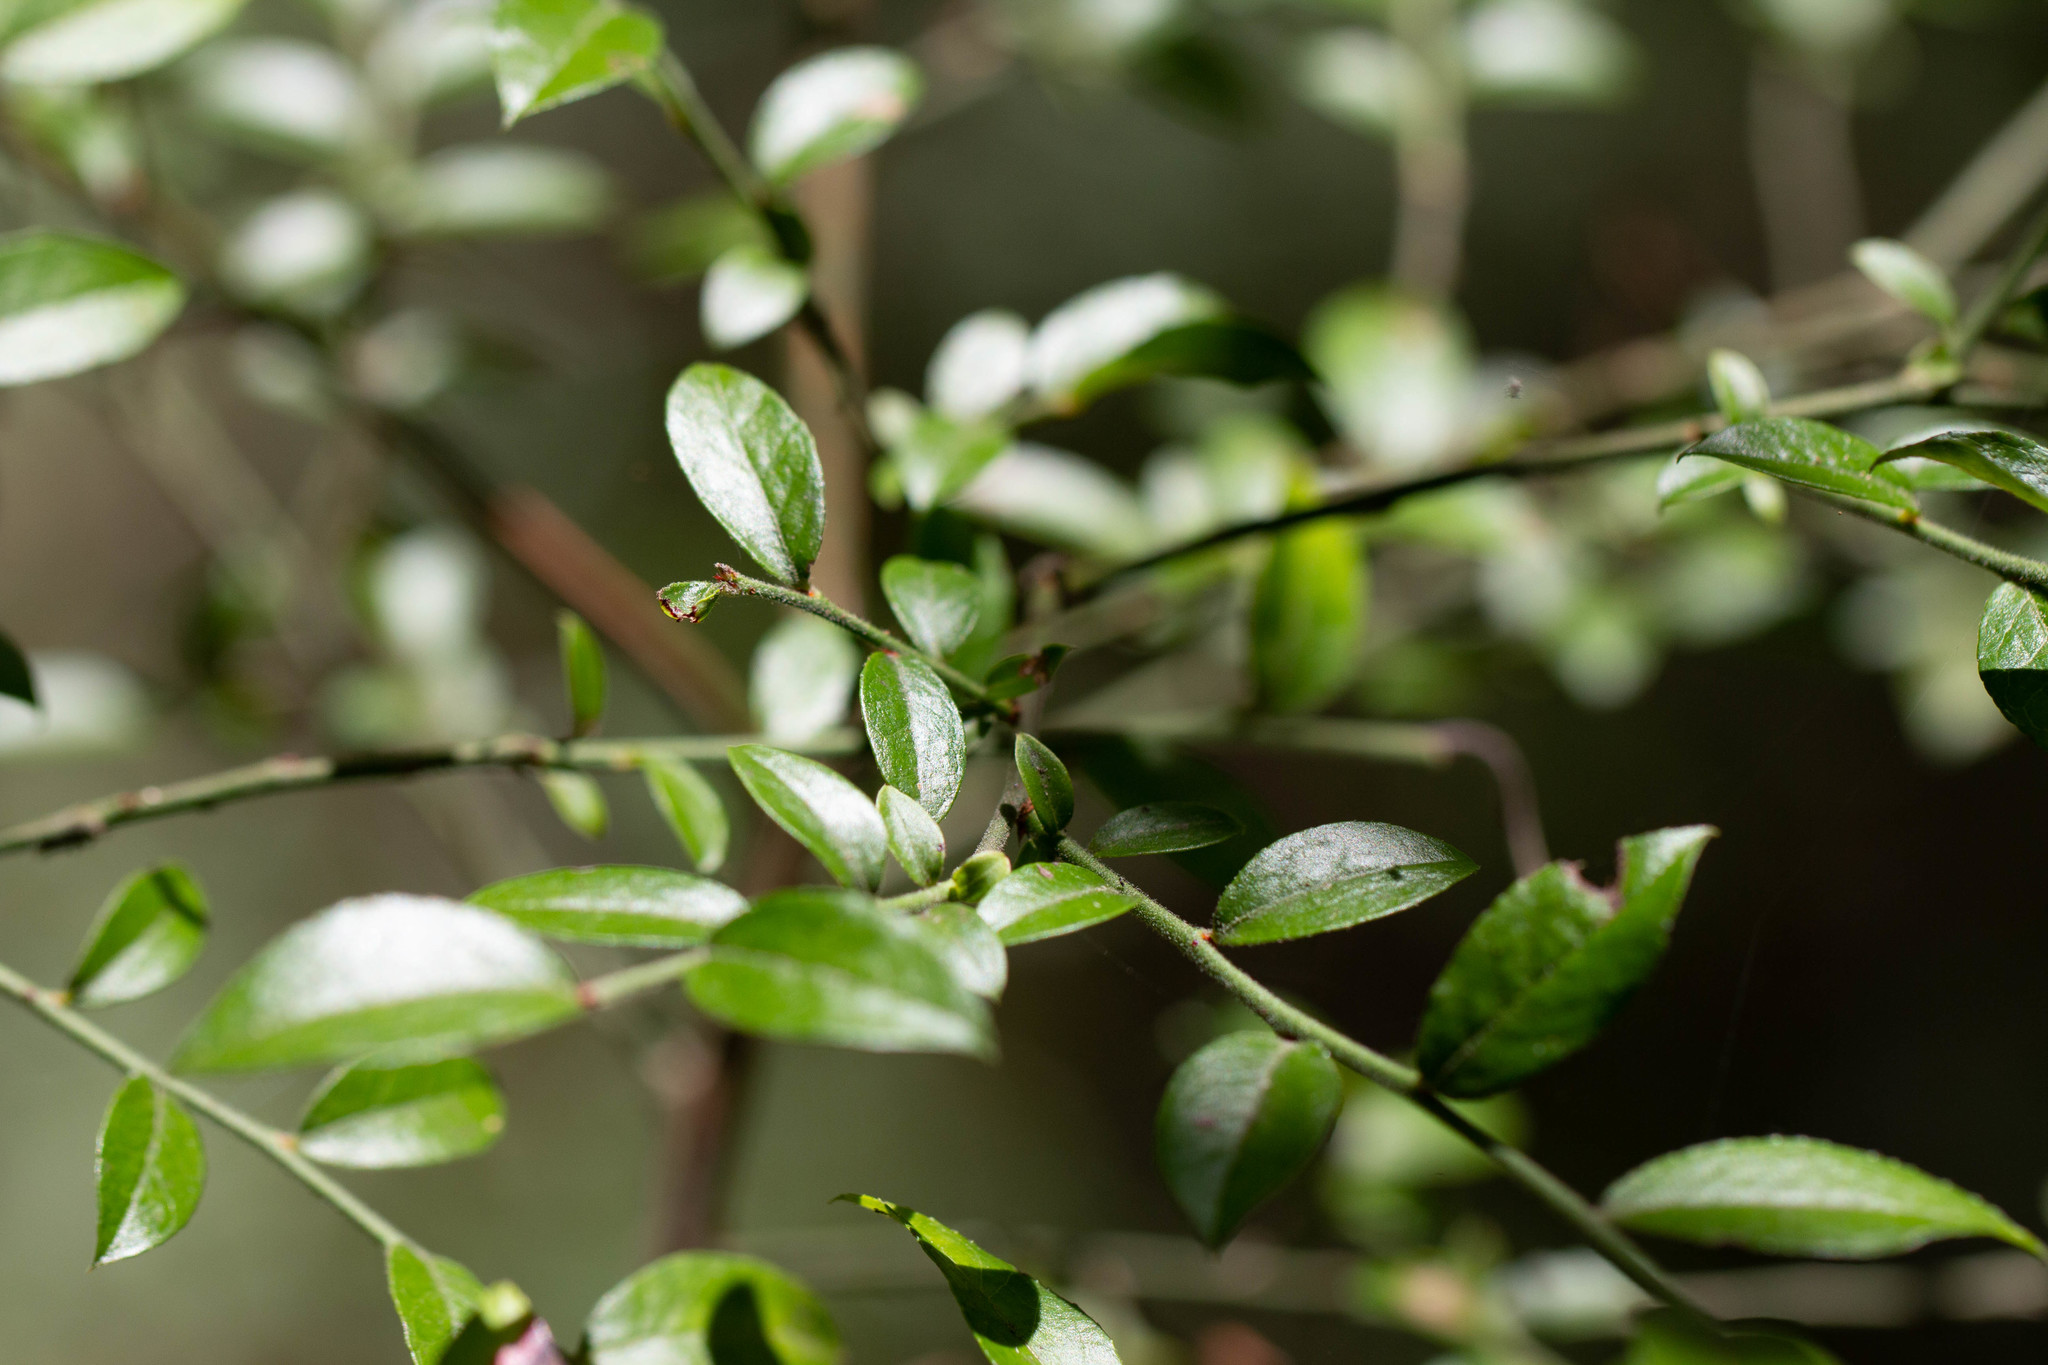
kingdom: Plantae
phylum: Tracheophyta
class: Magnoliopsida
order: Ericales
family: Ericaceae
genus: Vaccinium
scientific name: Vaccinium corymbosum
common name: Blueberry
